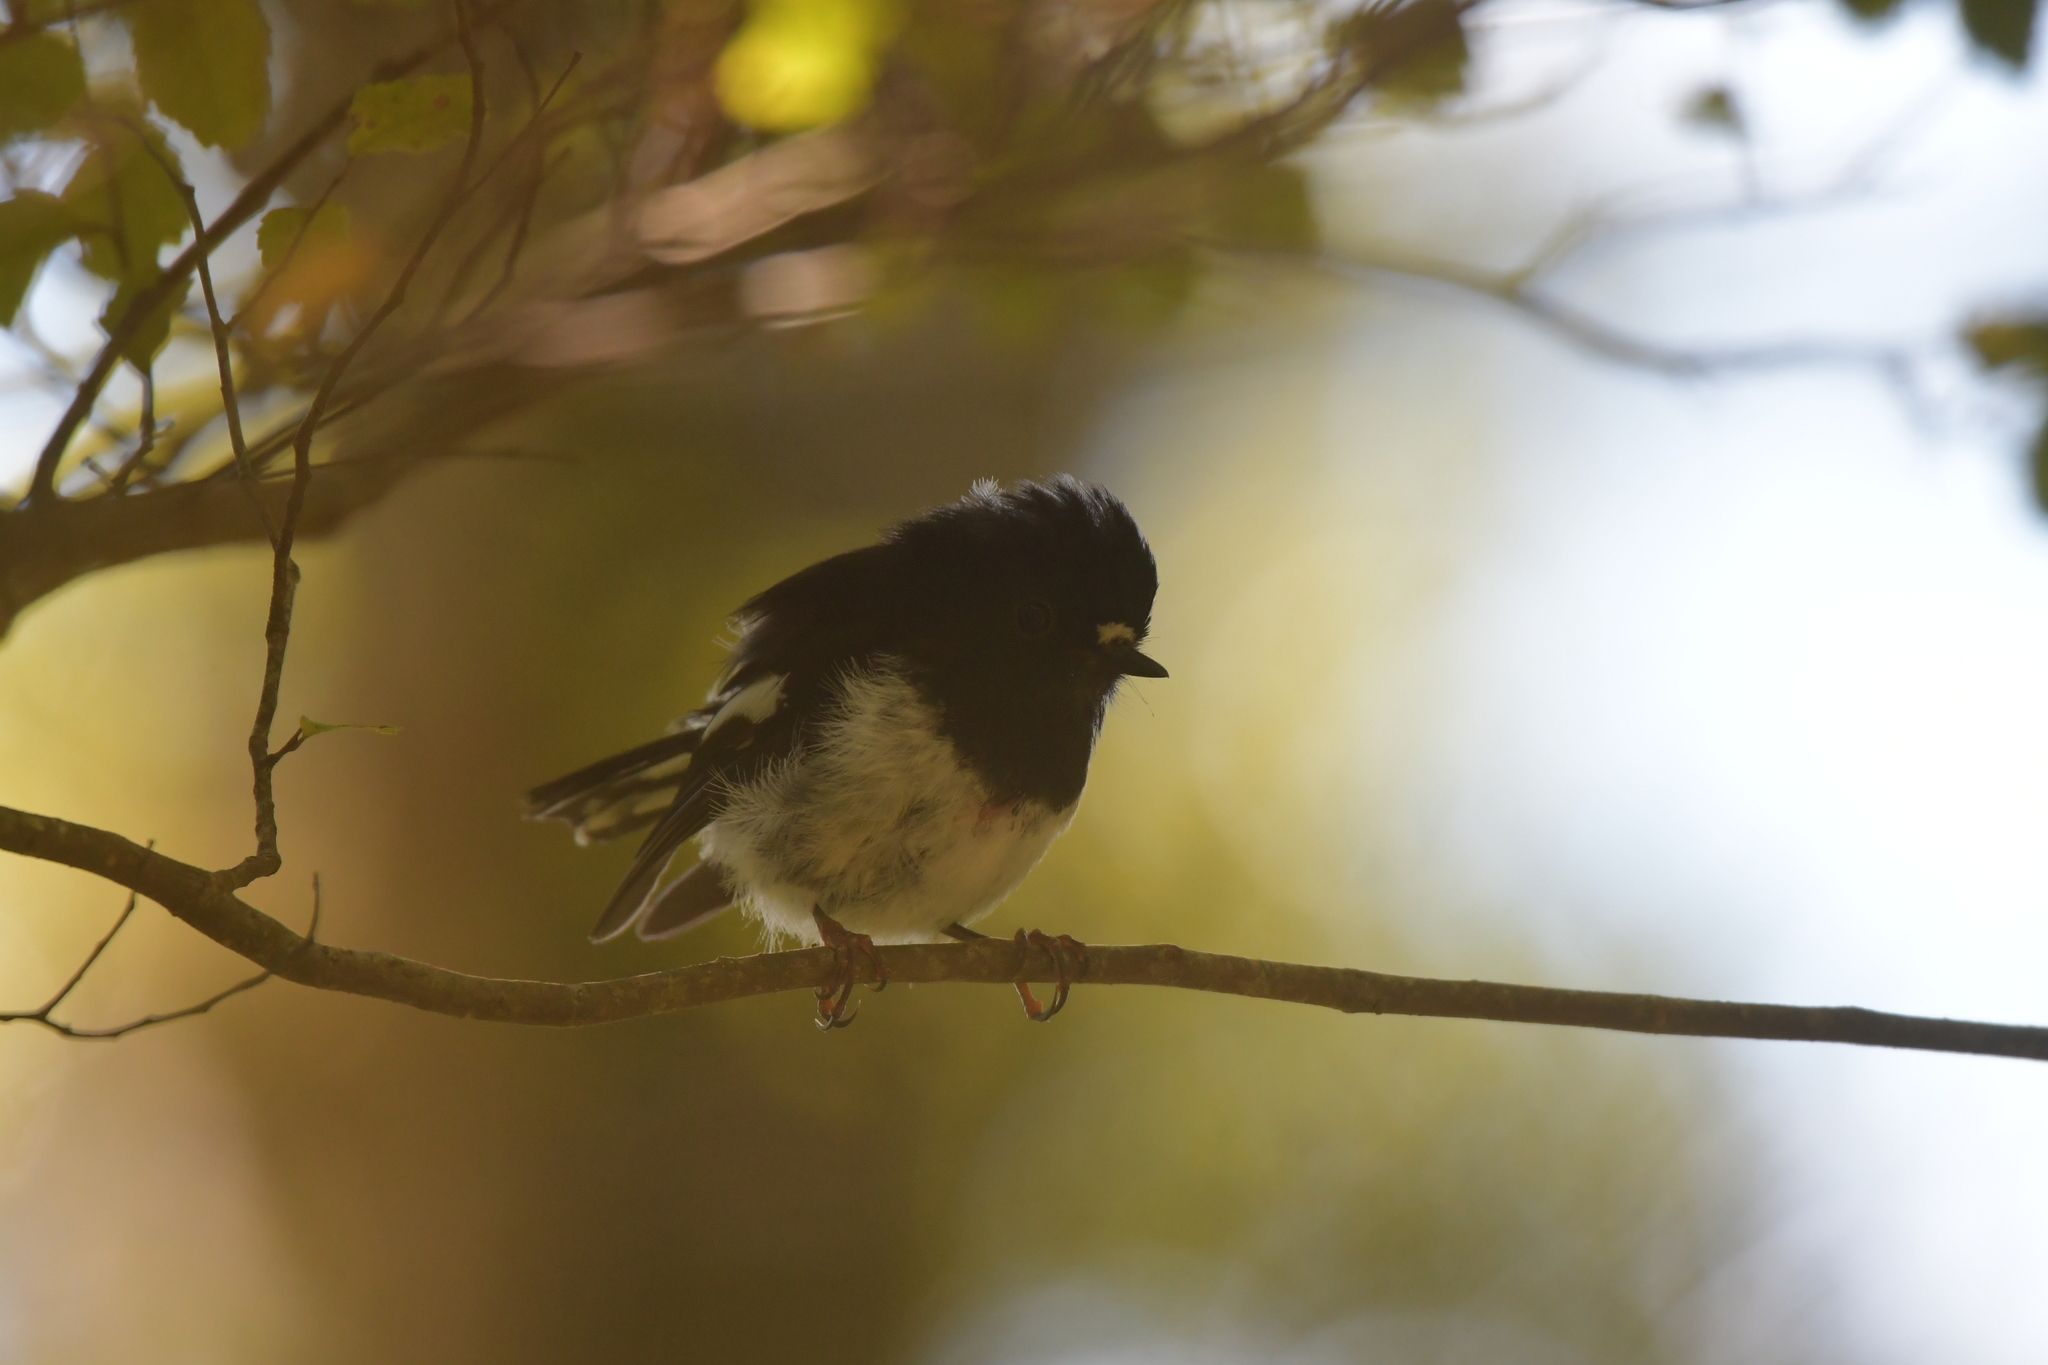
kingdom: Animalia
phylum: Chordata
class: Aves
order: Passeriformes
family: Petroicidae
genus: Petroica
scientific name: Petroica macrocephala
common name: Tomtit
